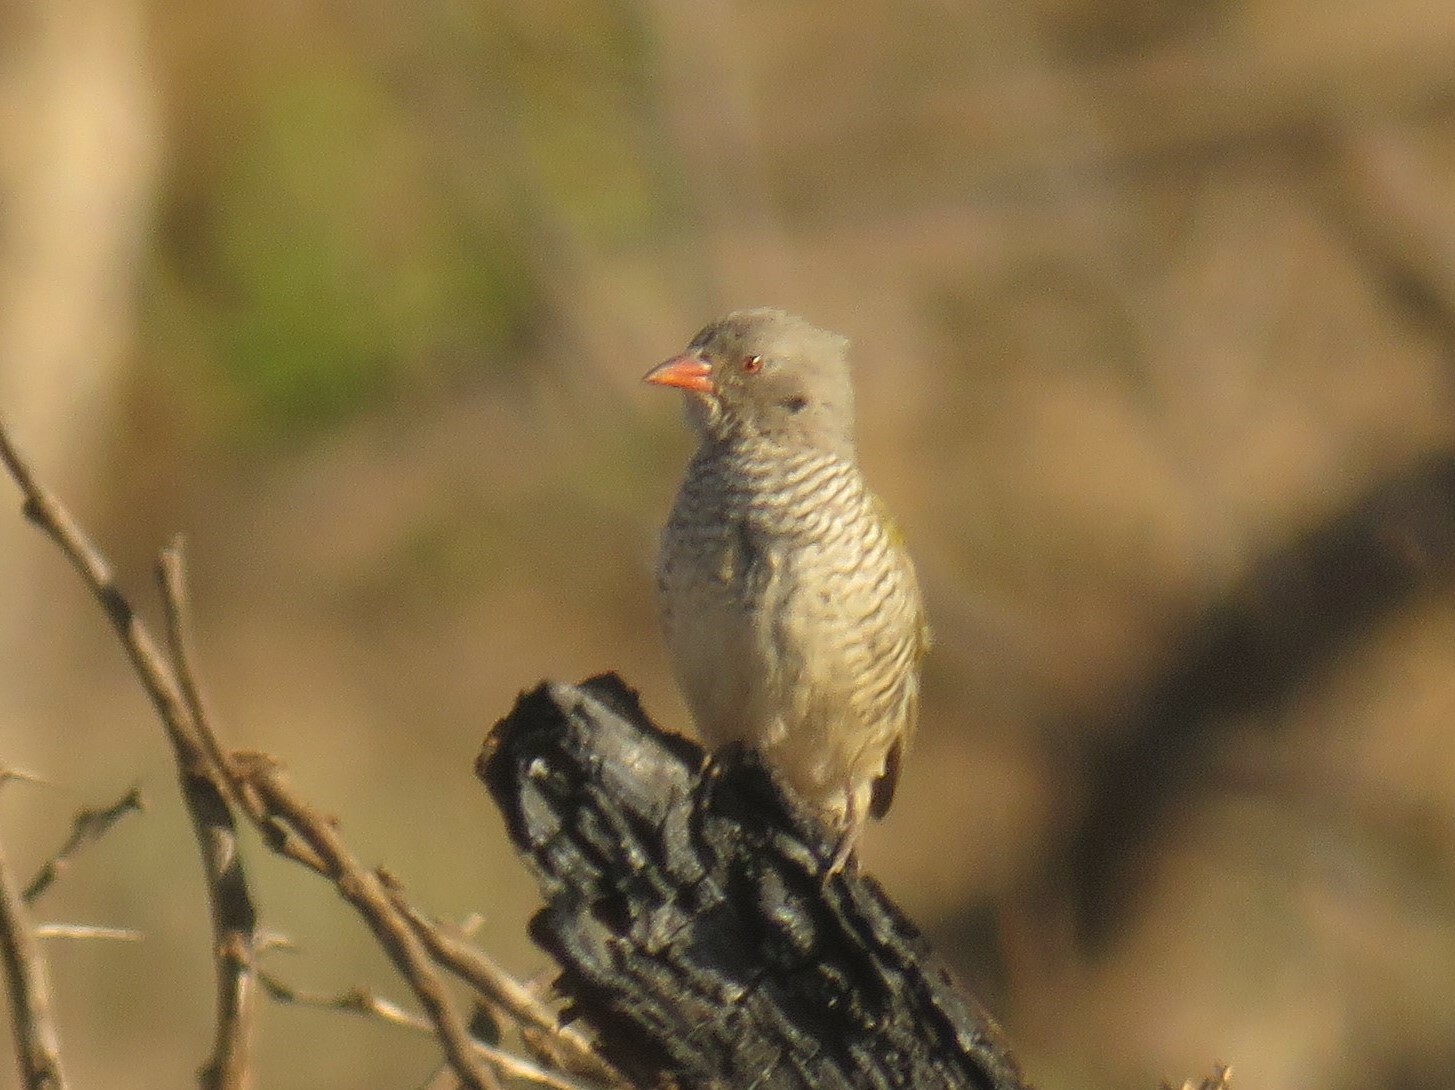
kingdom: Animalia
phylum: Chordata
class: Aves
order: Passeriformes
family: Estrildidae
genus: Pytilia
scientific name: Pytilia melba
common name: Green-winged pytilia
